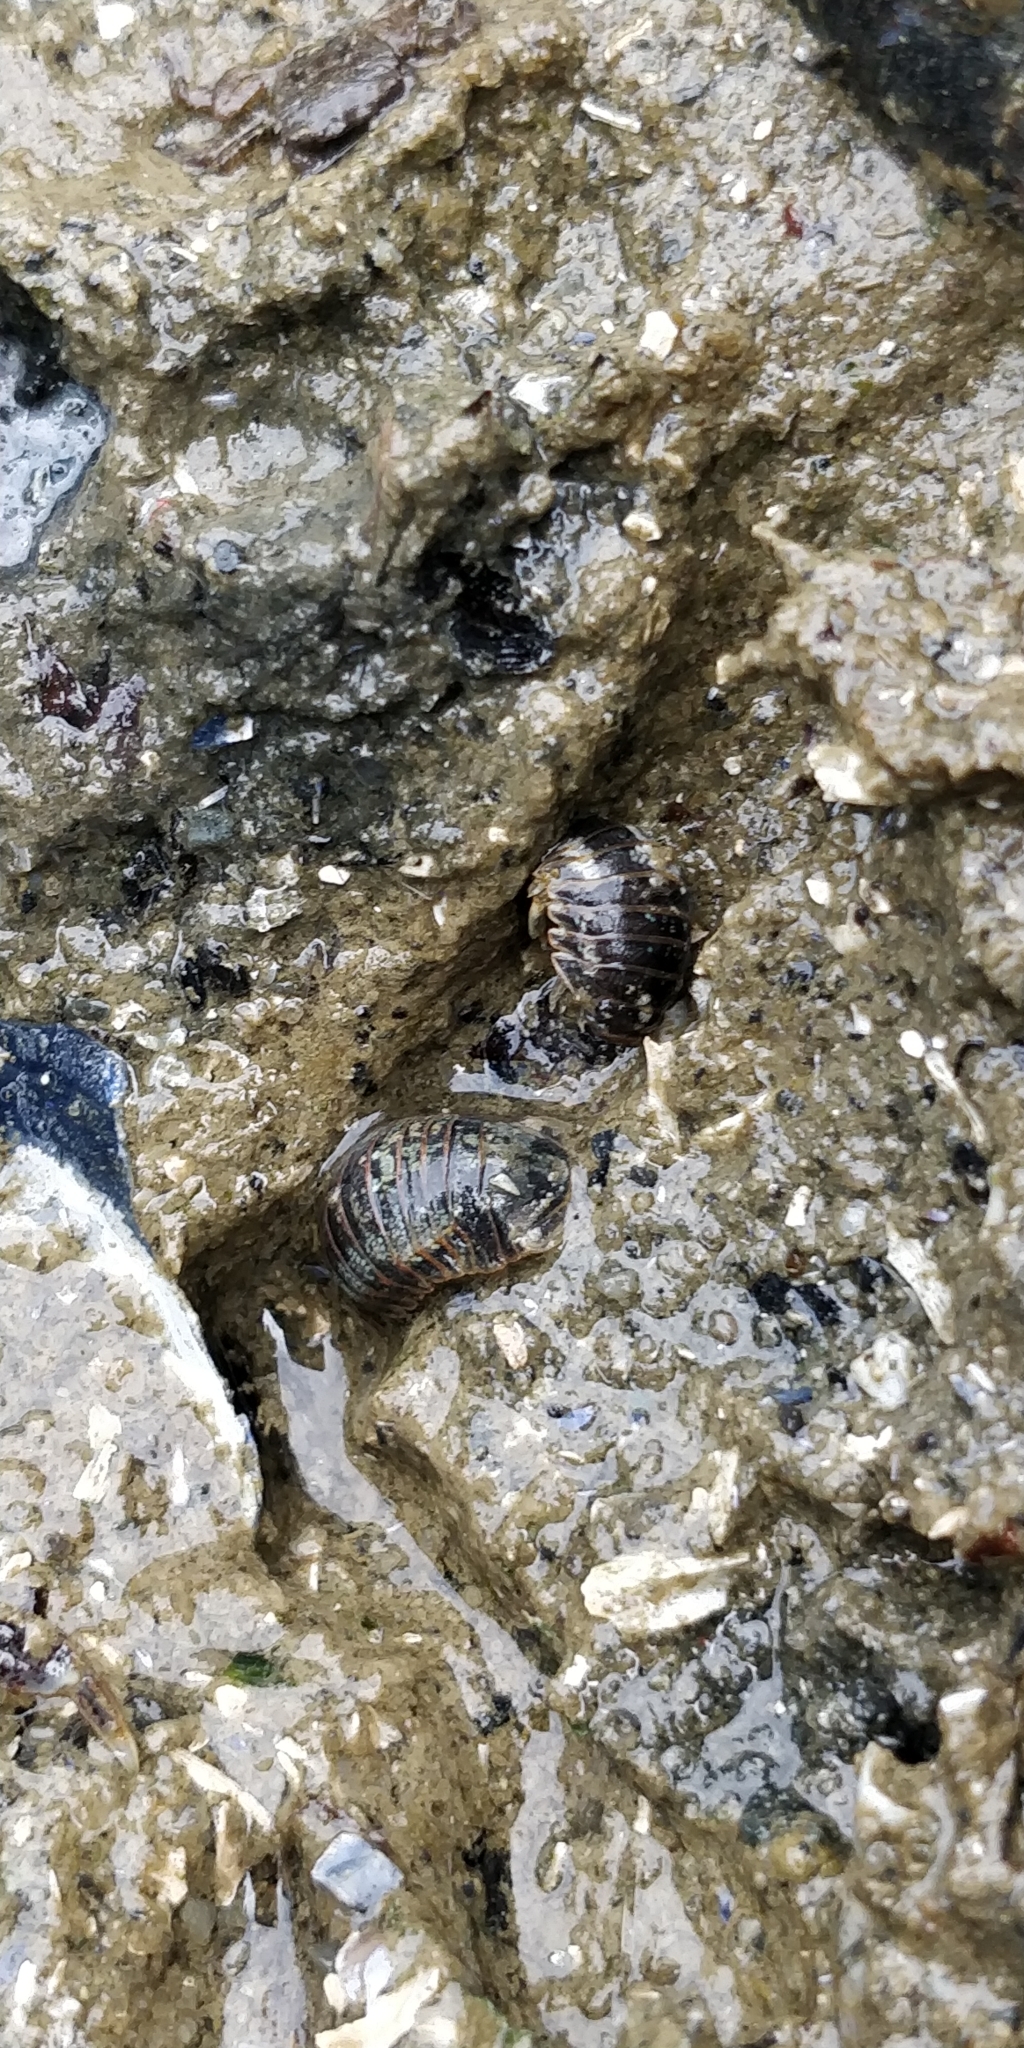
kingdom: Animalia
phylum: Arthropoda
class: Malacostraca
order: Isopoda
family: Sphaeromatidae
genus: Gnorimosphaeroma
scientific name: Gnorimosphaeroma oregonense
